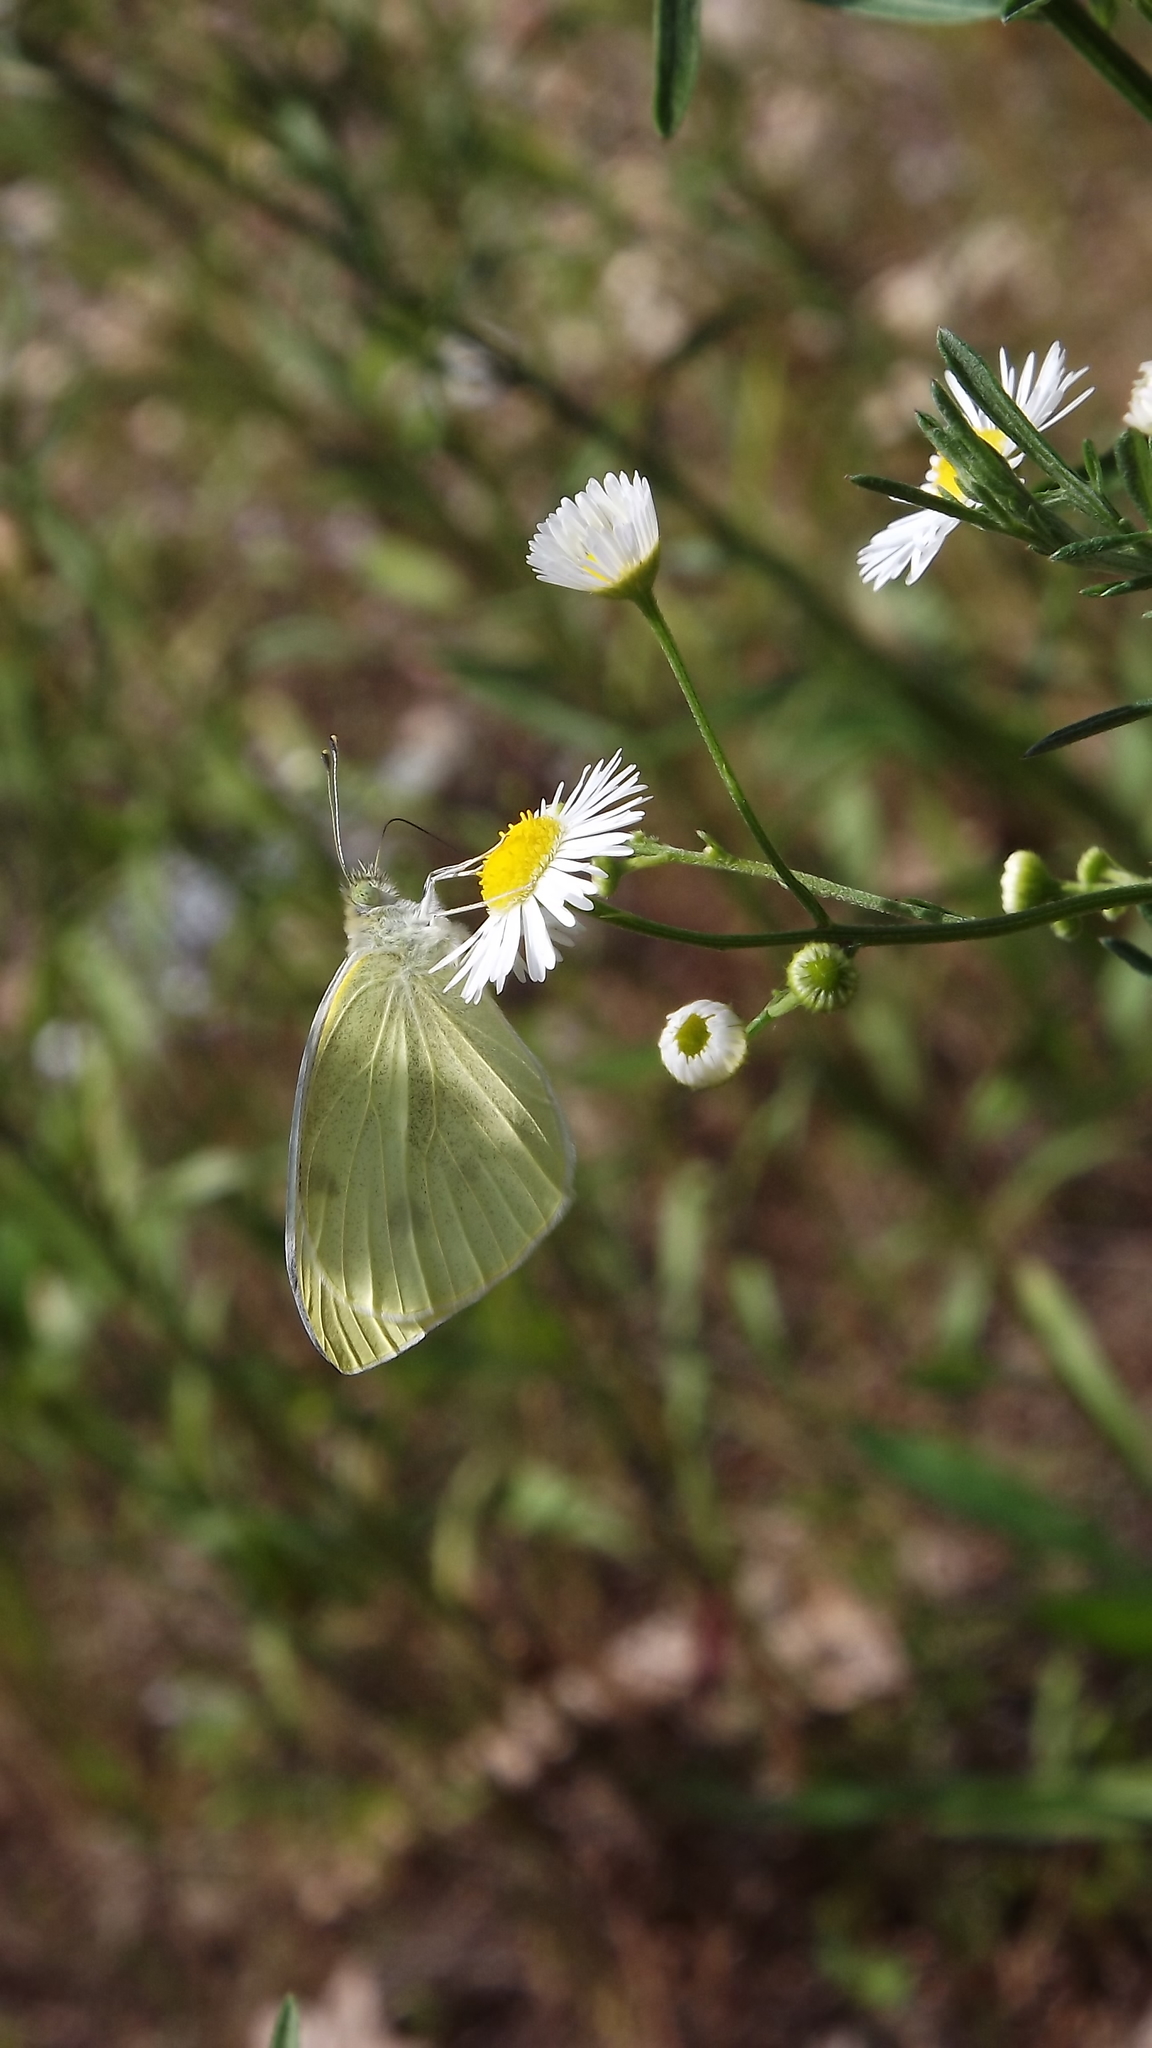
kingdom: Animalia
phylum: Arthropoda
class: Insecta
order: Lepidoptera
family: Pieridae
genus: Pieris
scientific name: Pieris rapae
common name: Small white
